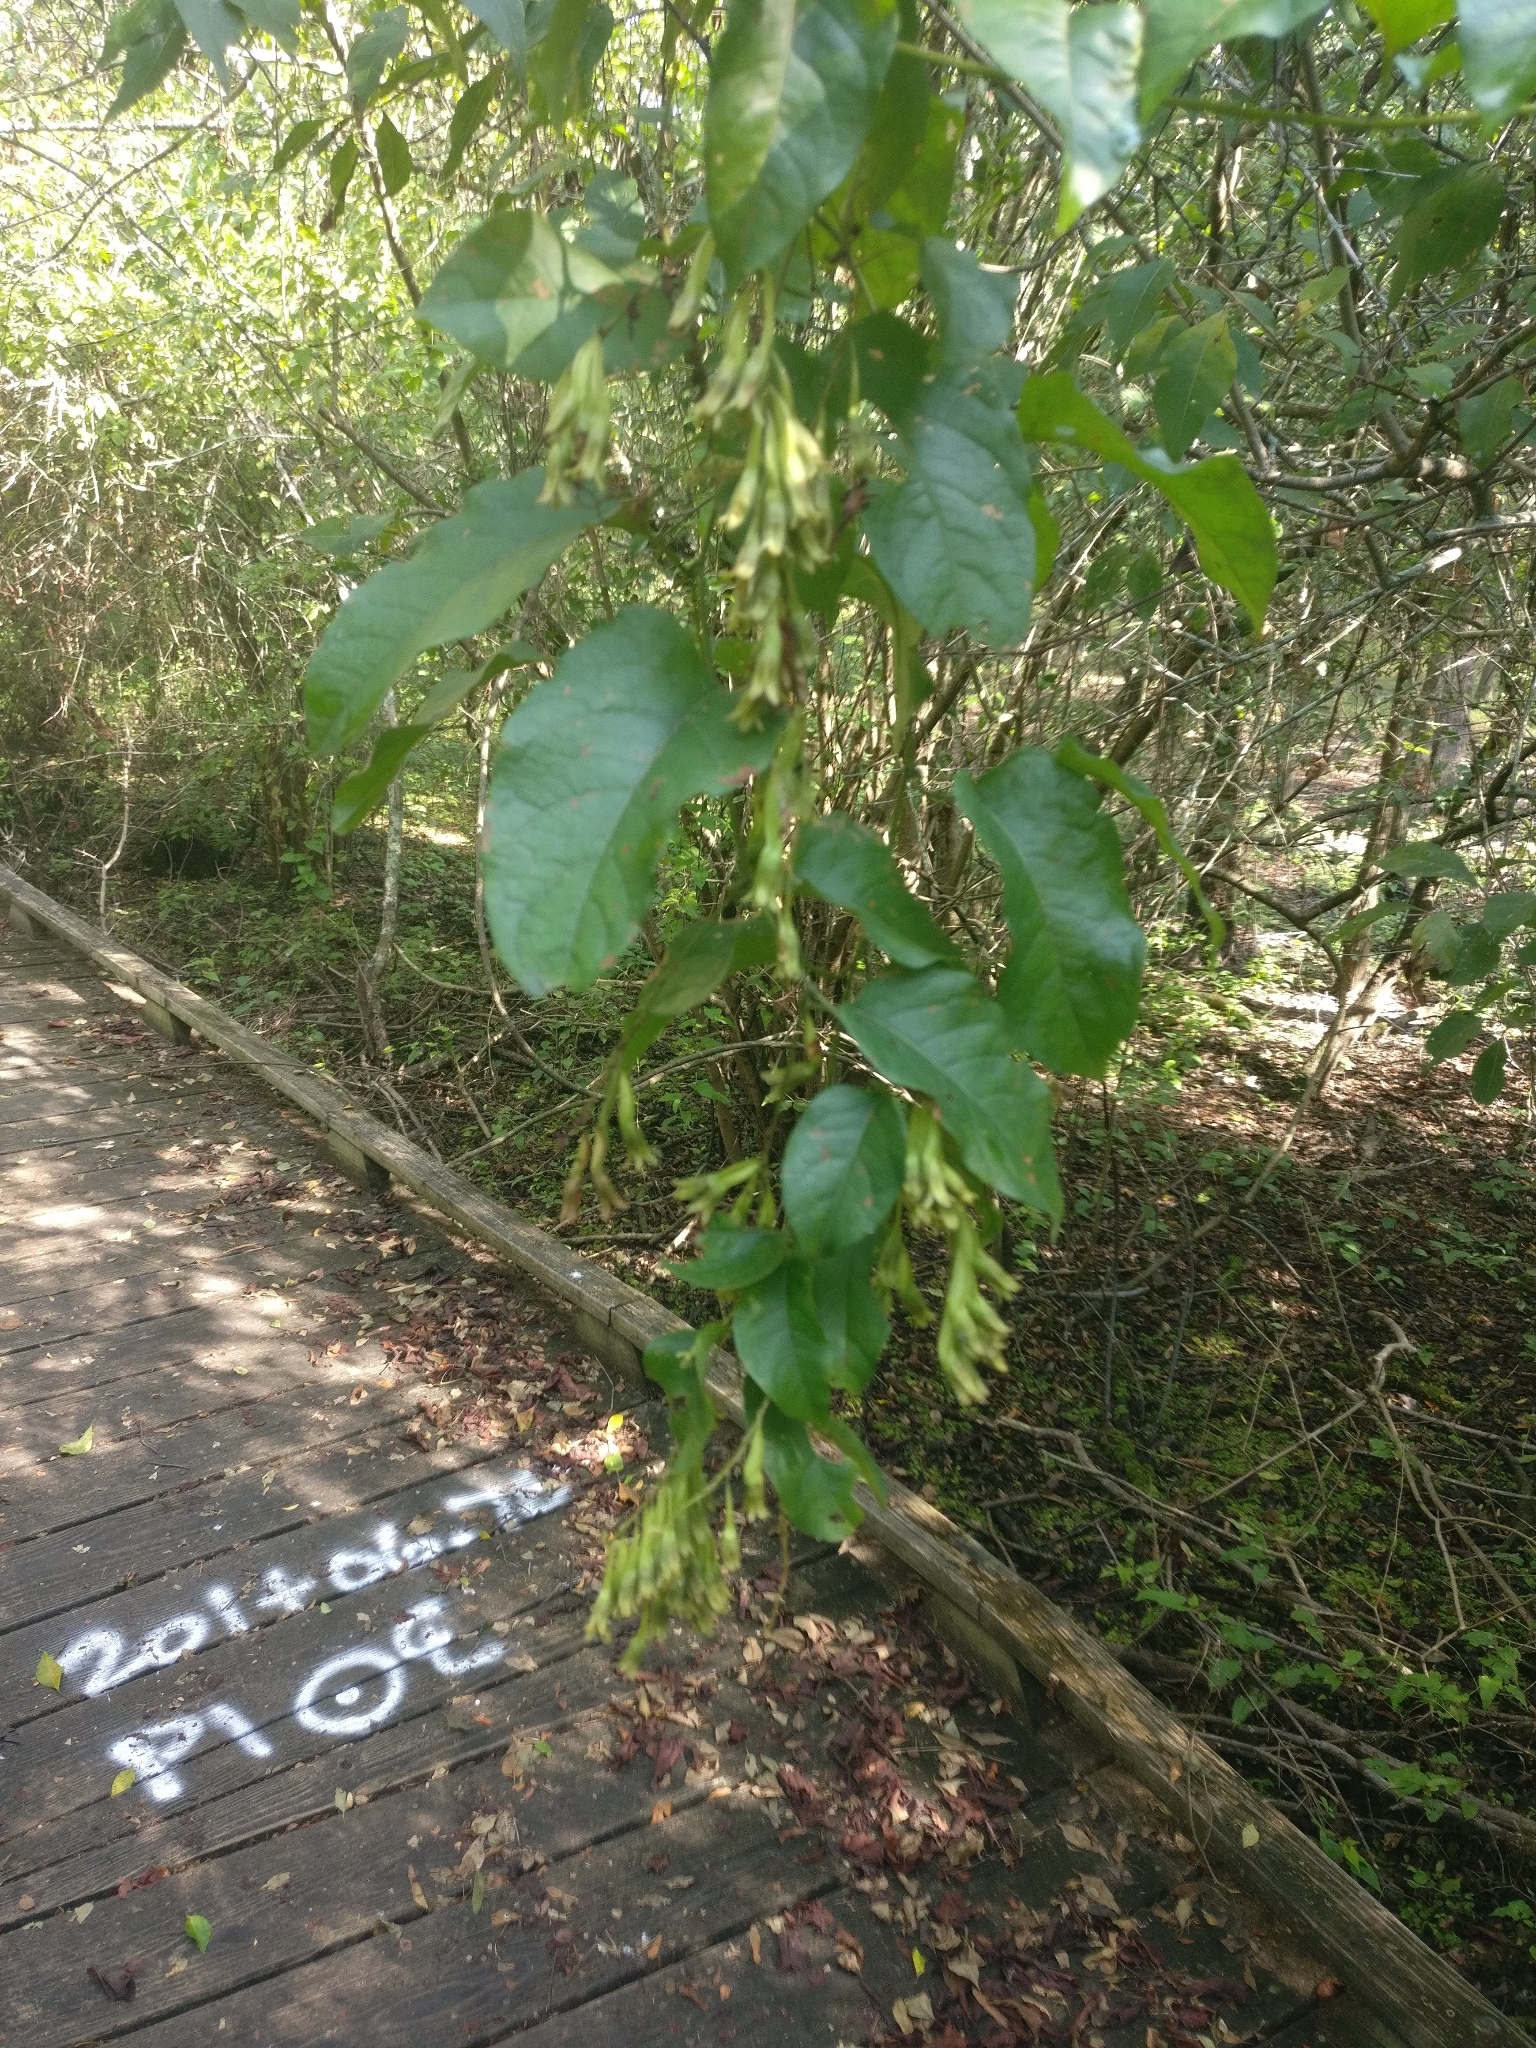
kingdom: Plantae
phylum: Tracheophyta
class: Magnoliopsida
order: Caryophyllales
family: Polygonaceae
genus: Brunnichia
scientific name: Brunnichia ovata
